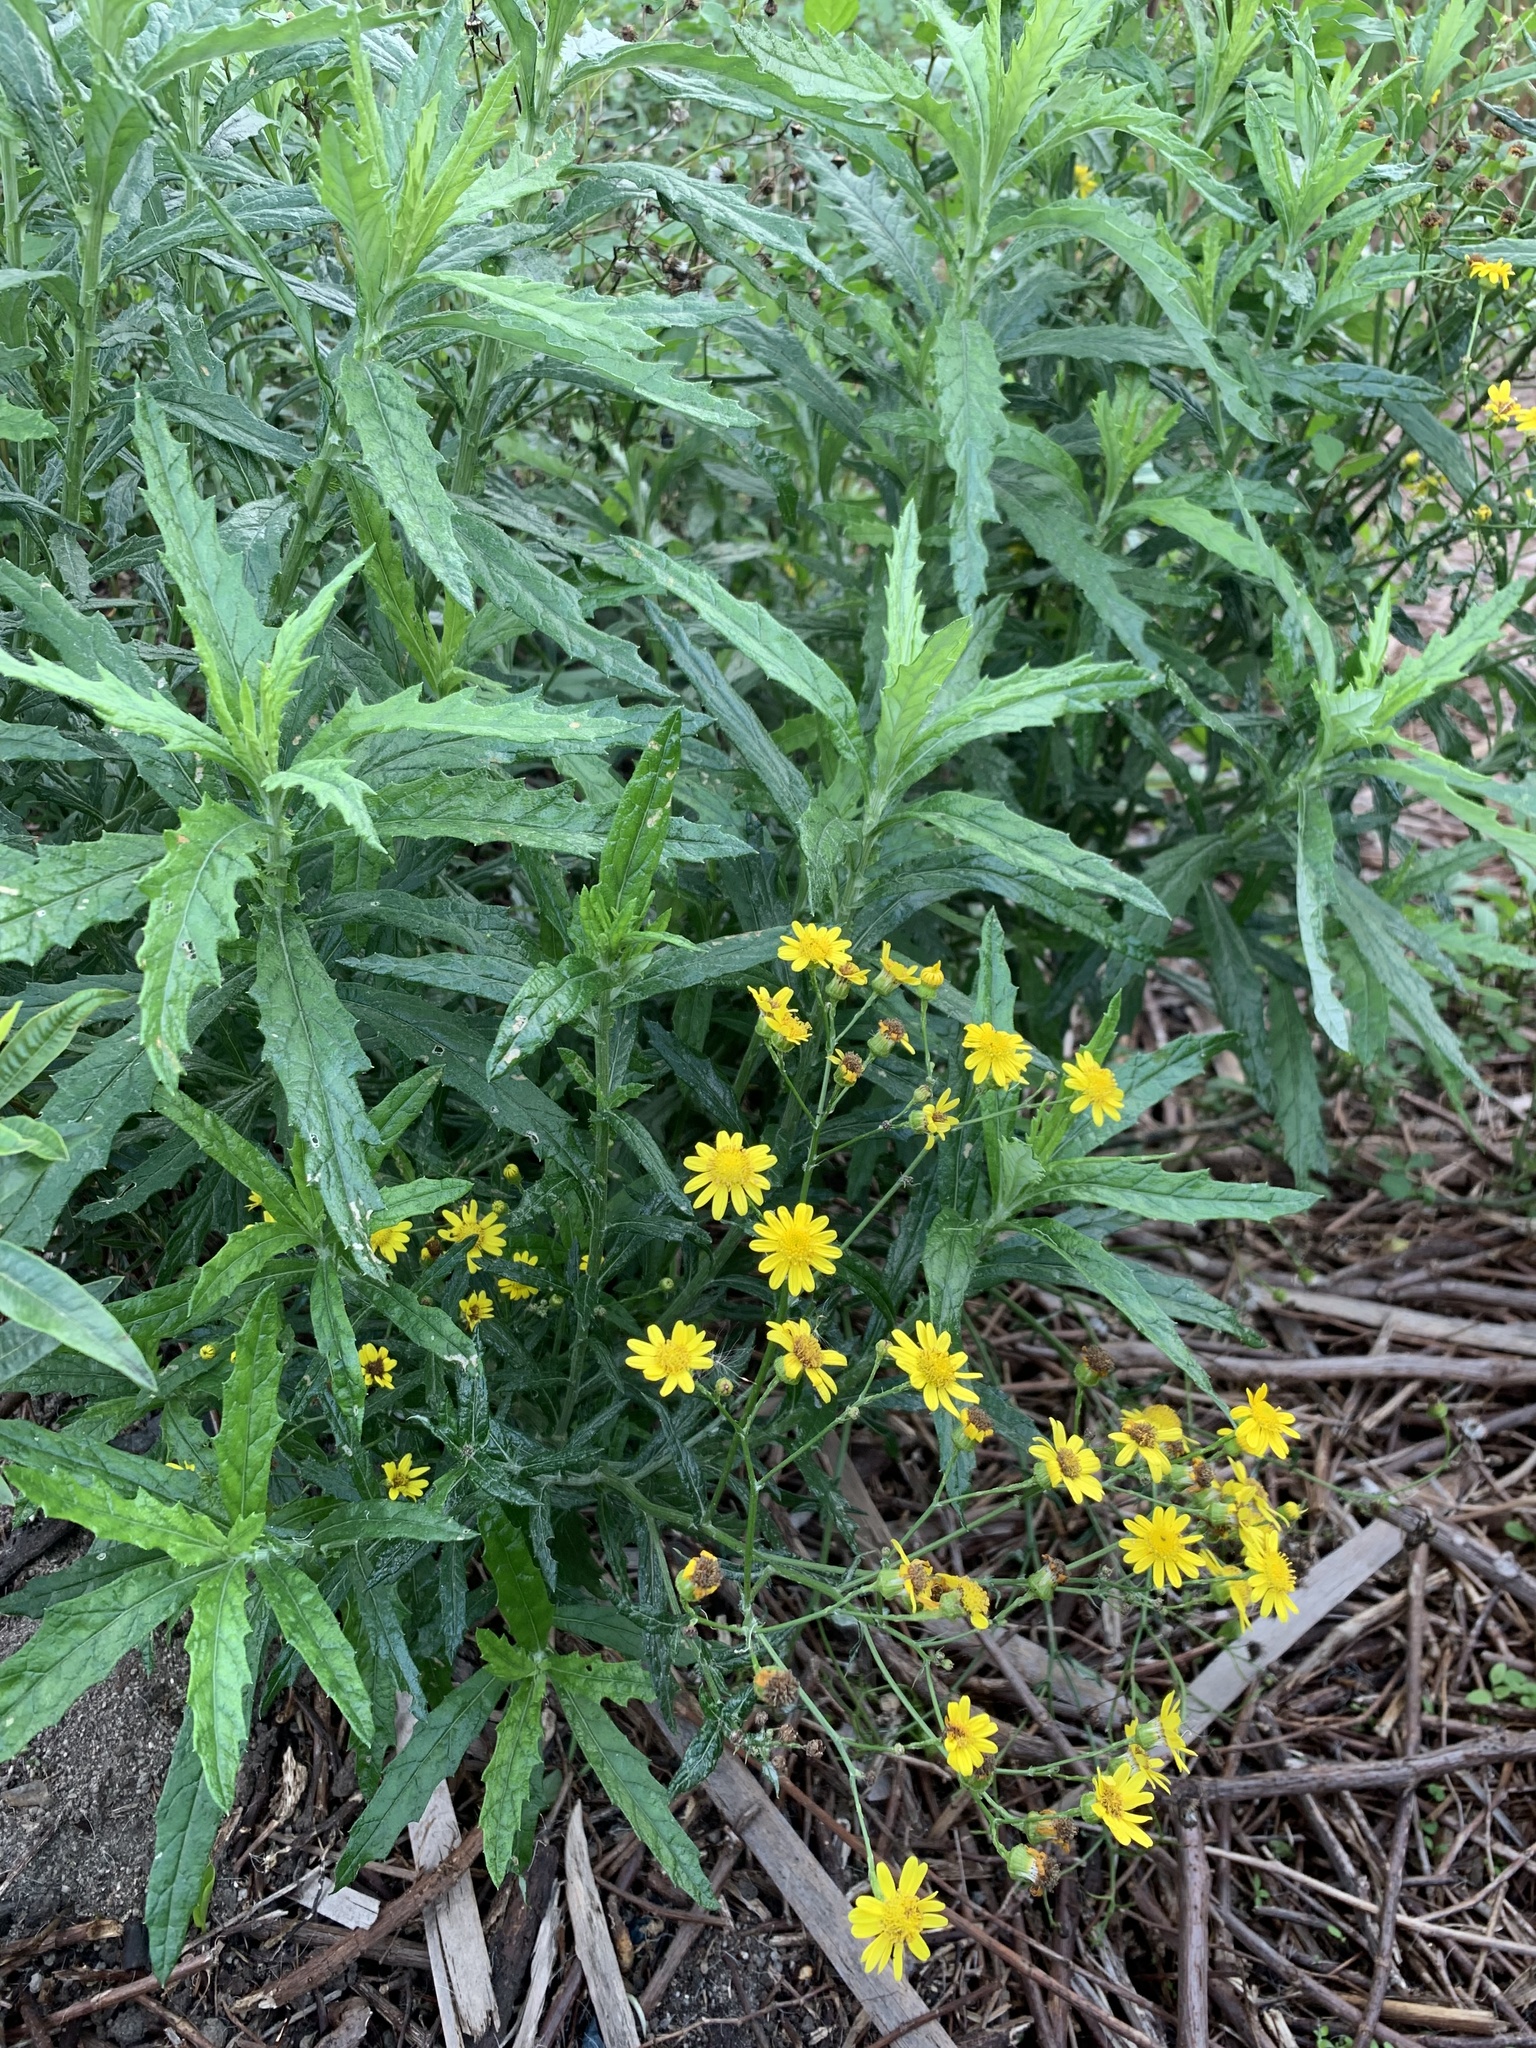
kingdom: Plantae
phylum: Tracheophyta
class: Magnoliopsida
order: Asterales
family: Asteraceae
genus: Senecio
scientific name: Senecio pterophorus
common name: Shoddy ragwort
